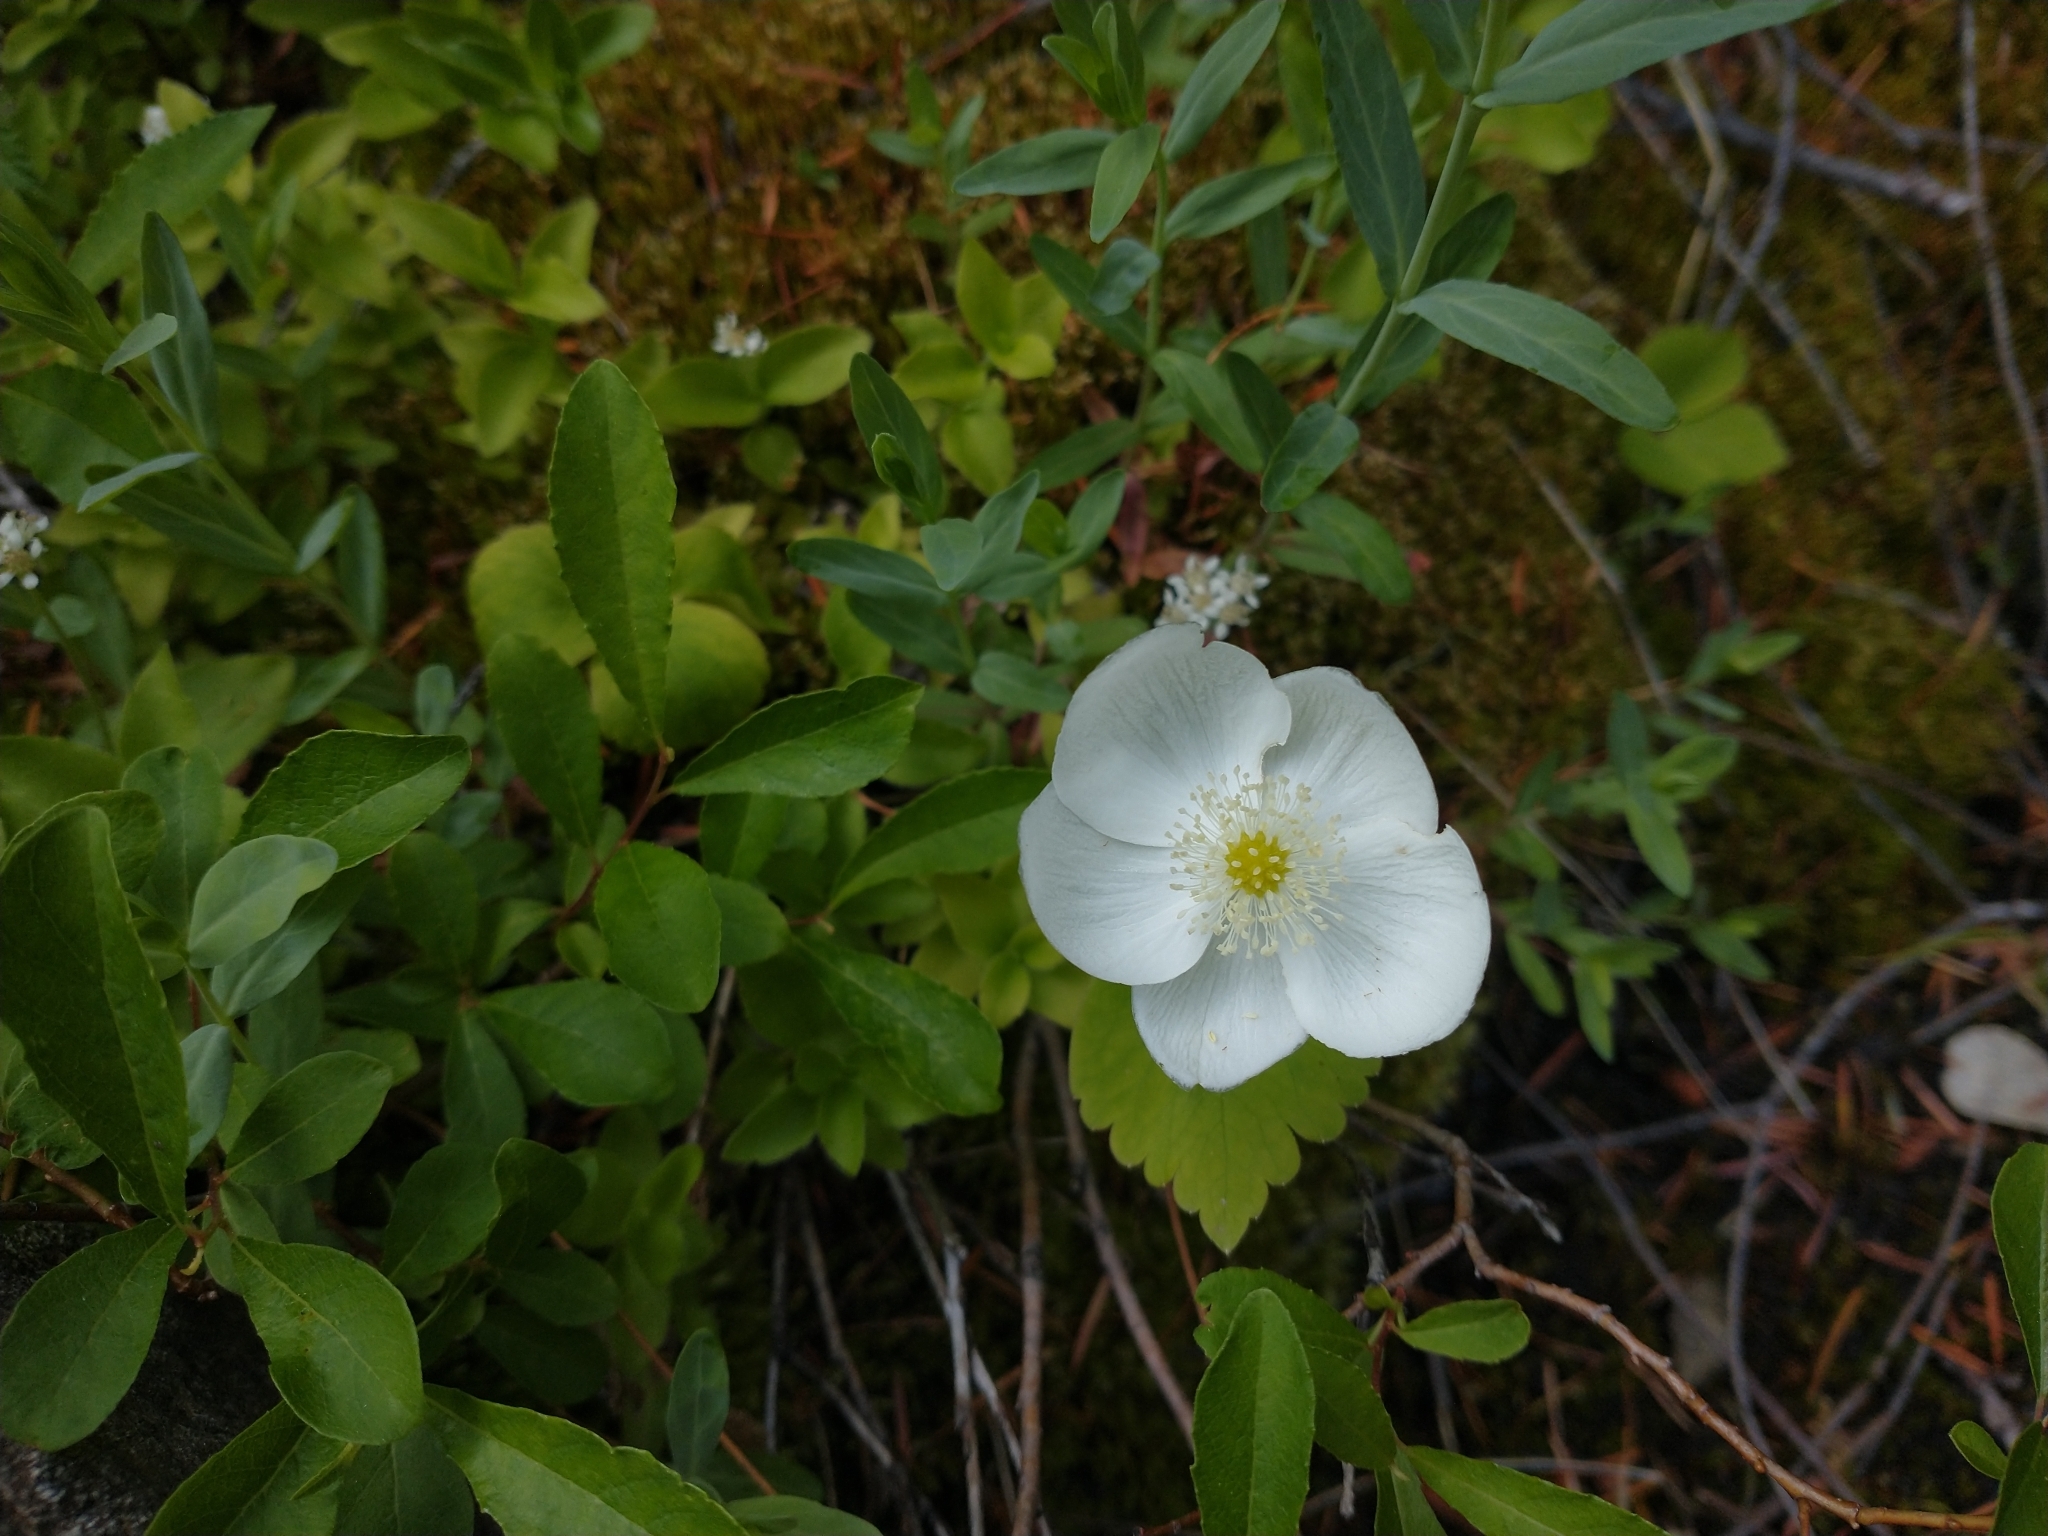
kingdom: Plantae
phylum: Tracheophyta
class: Magnoliopsida
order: Ranunculales
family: Ranunculaceae
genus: Anemonastrum
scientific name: Anemonastrum deltoideum
